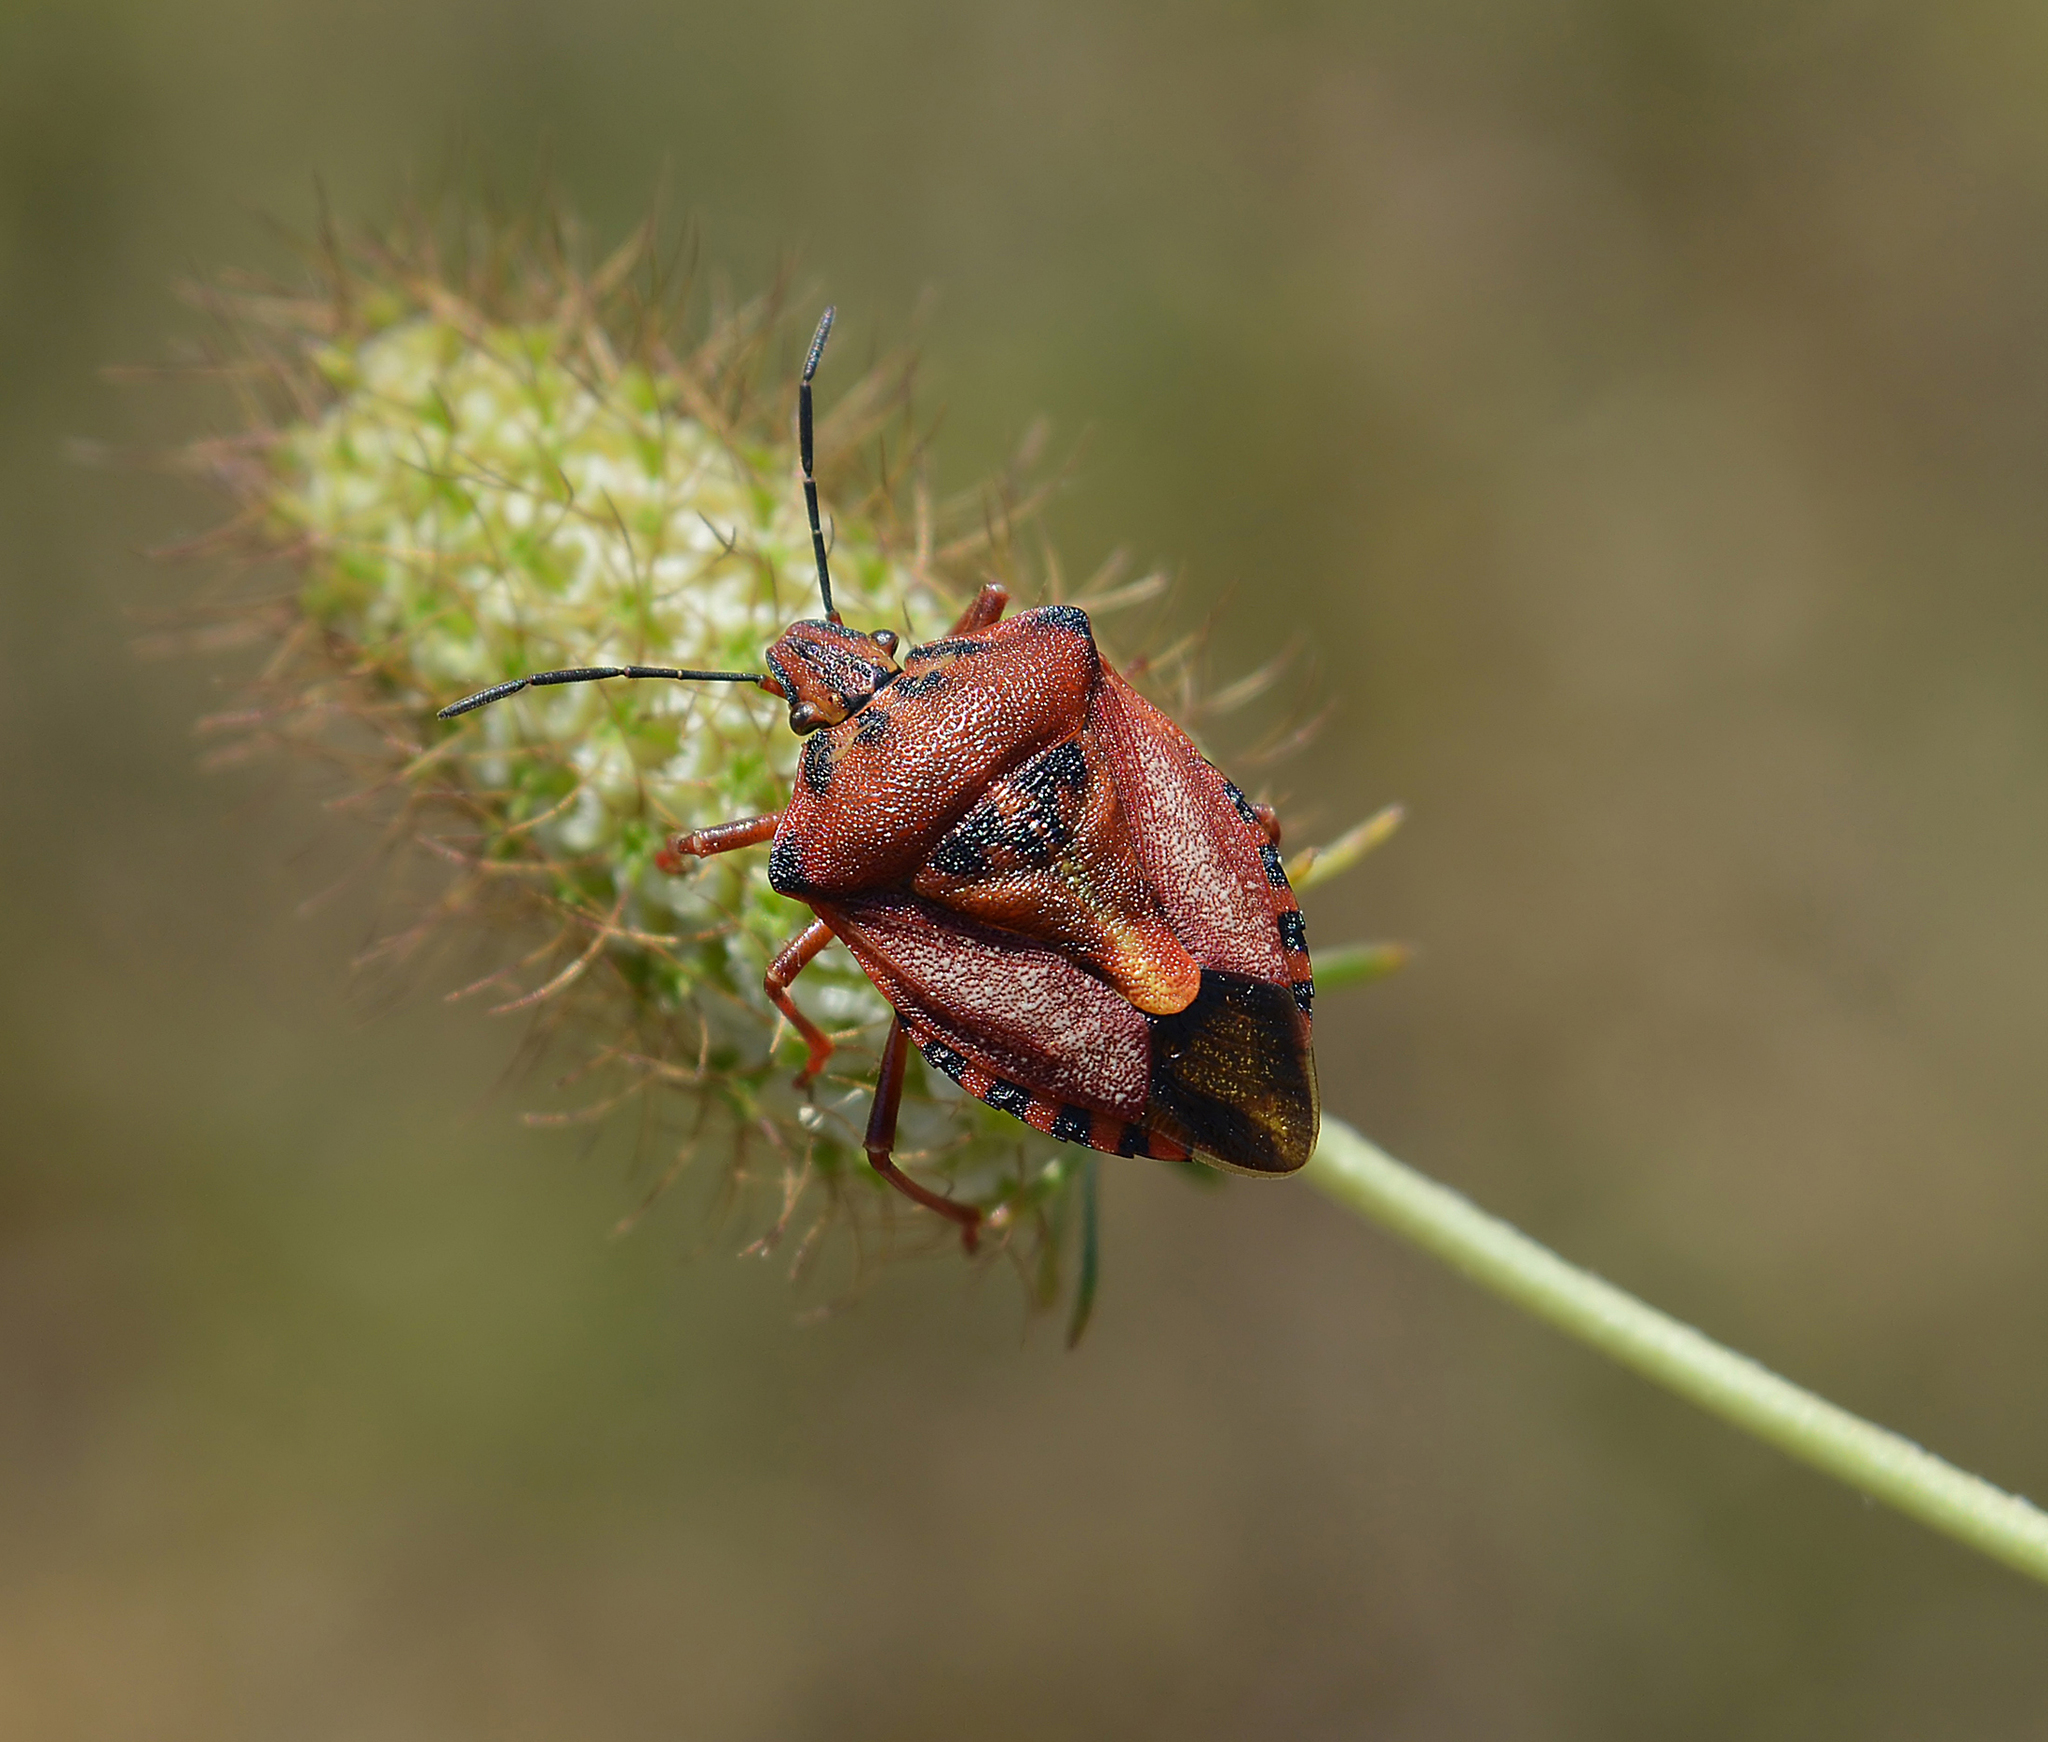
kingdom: Animalia
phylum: Arthropoda
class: Insecta
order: Hemiptera
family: Pentatomidae
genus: Carpocoris
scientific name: Carpocoris mediterraneus
